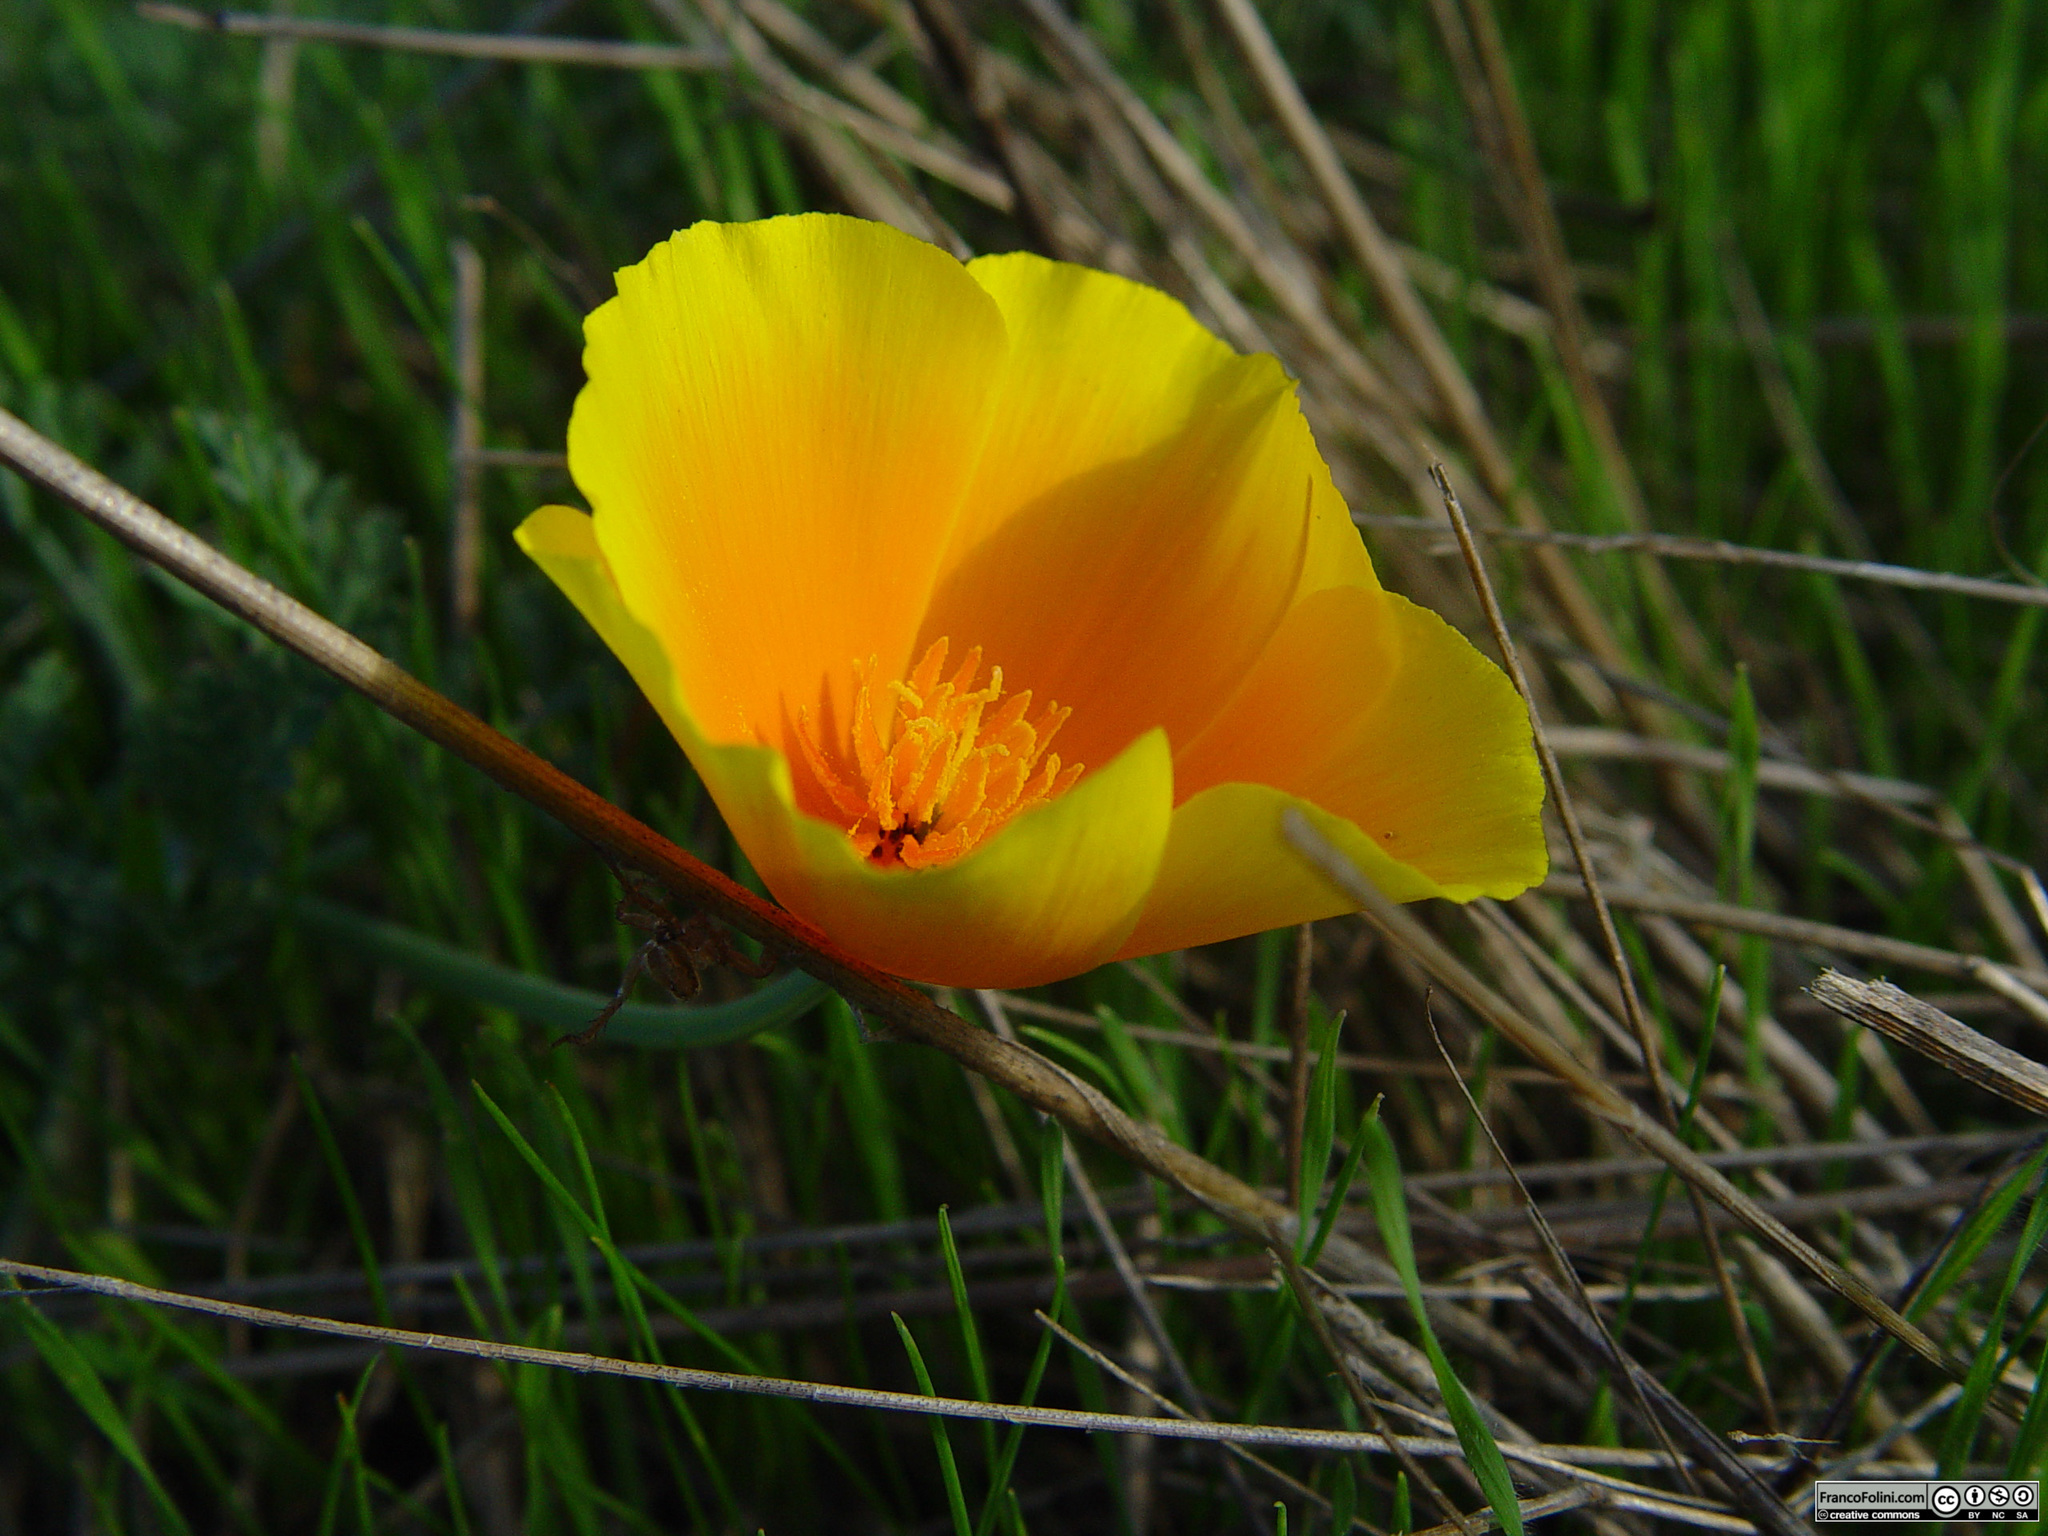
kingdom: Plantae
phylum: Tracheophyta
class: Magnoliopsida
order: Ranunculales
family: Papaveraceae
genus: Eschscholzia
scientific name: Eschscholzia californica
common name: California poppy
